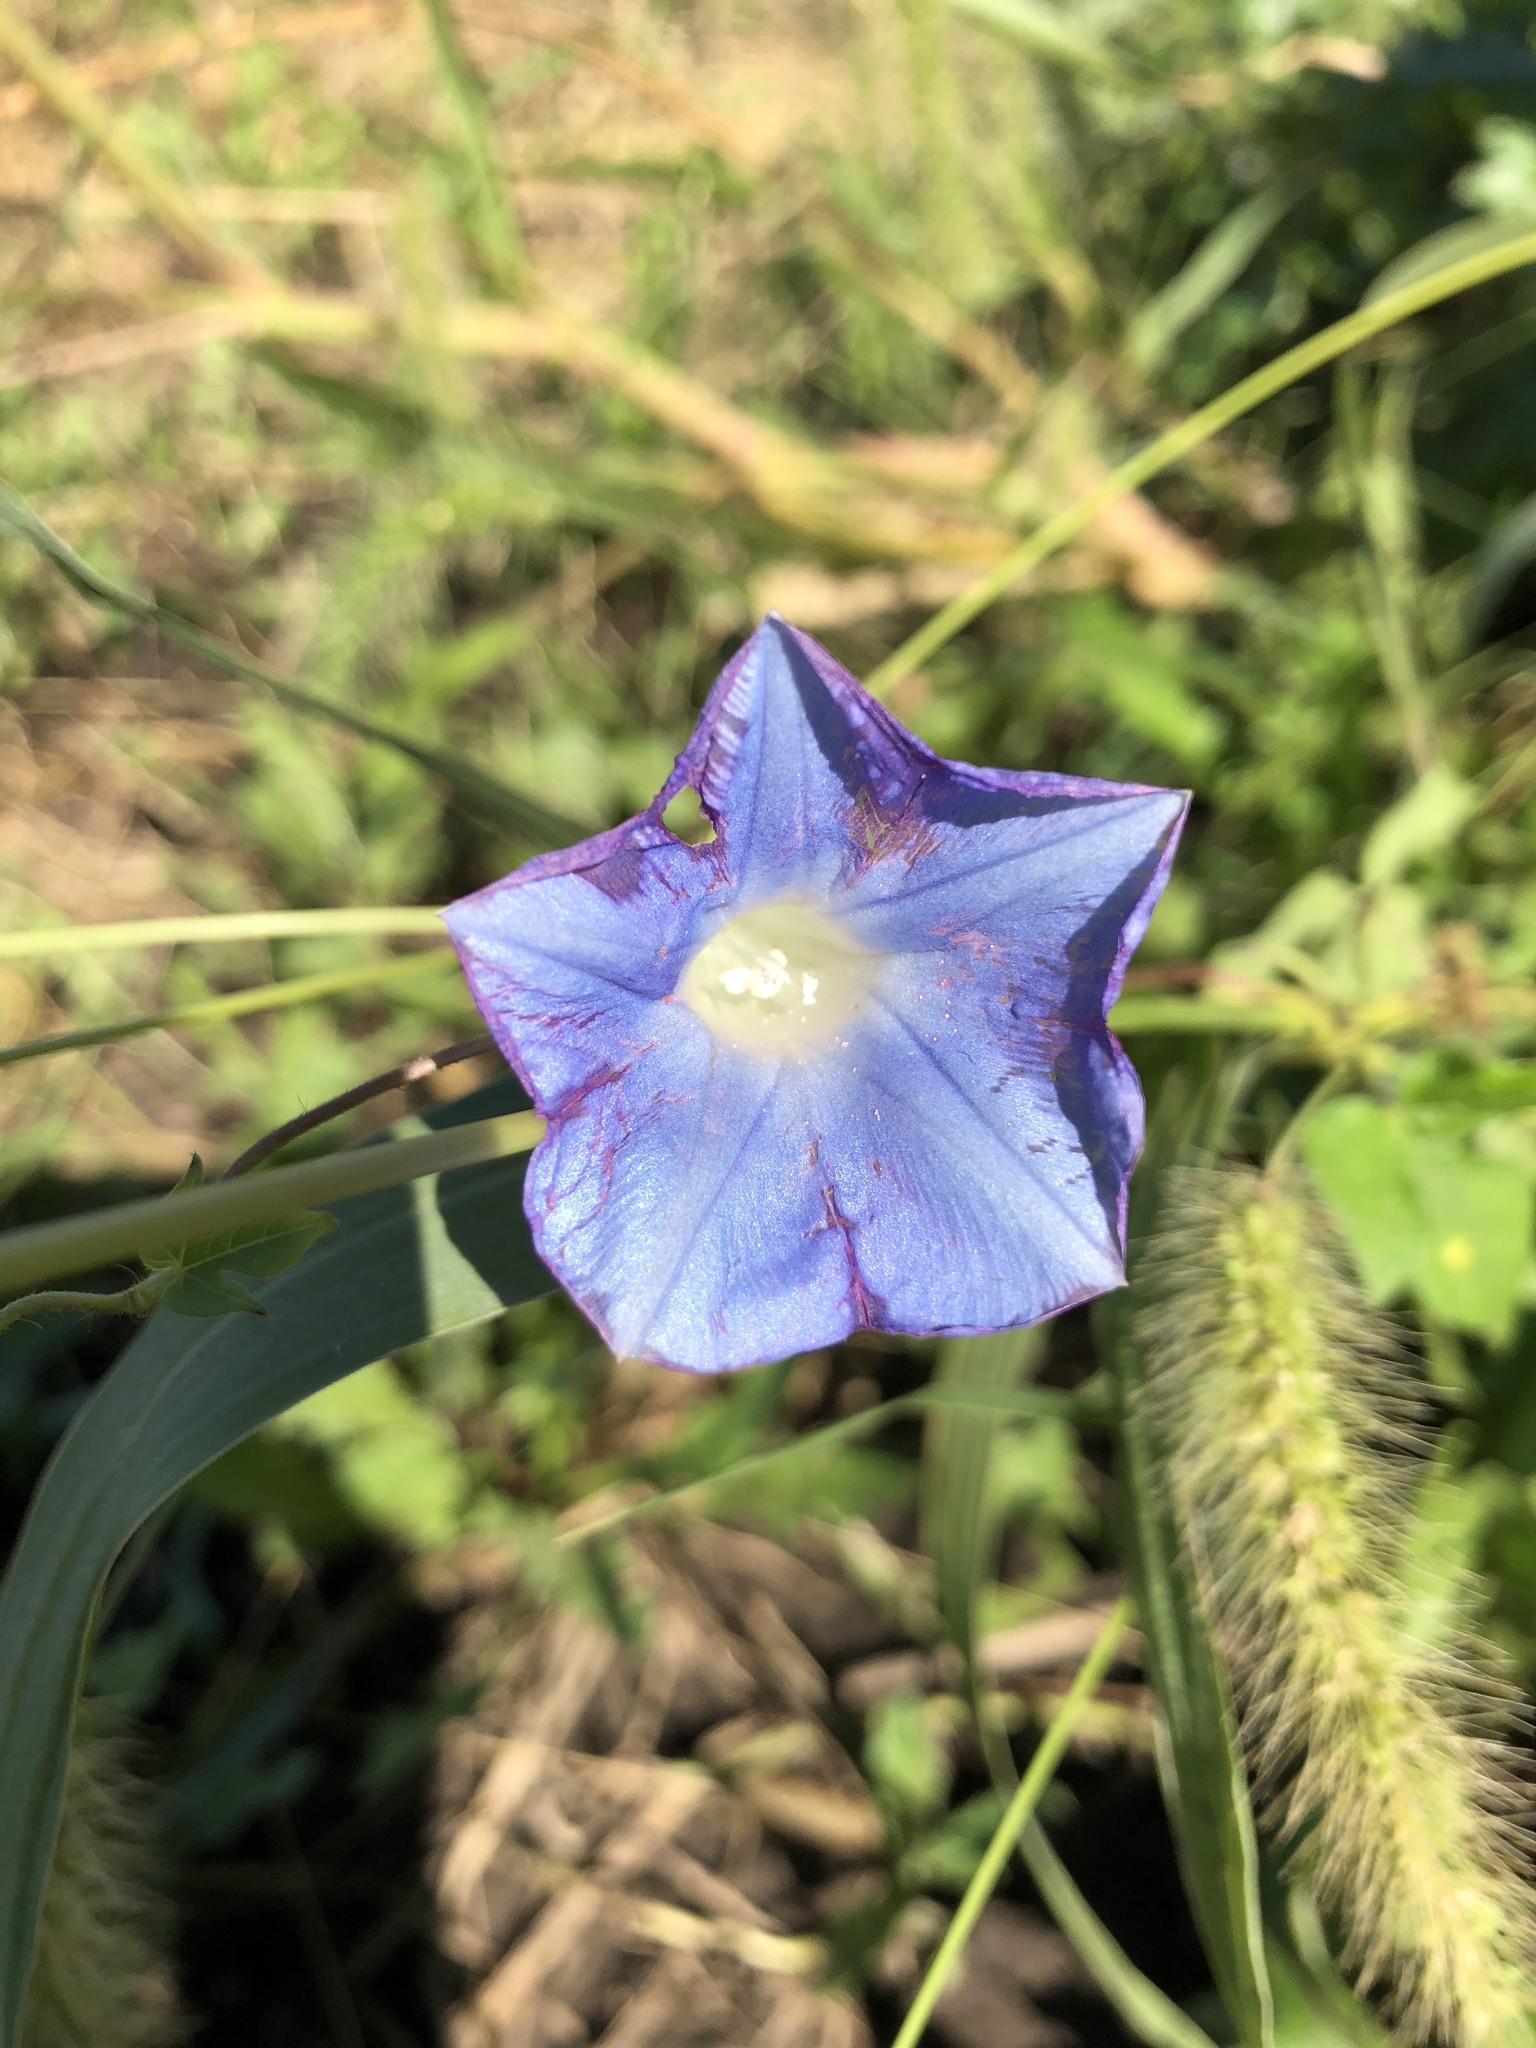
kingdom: Plantae
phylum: Tracheophyta
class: Magnoliopsida
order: Solanales
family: Convolvulaceae
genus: Ipomoea
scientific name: Ipomoea hederacea
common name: Ivy-leaved morning-glory
